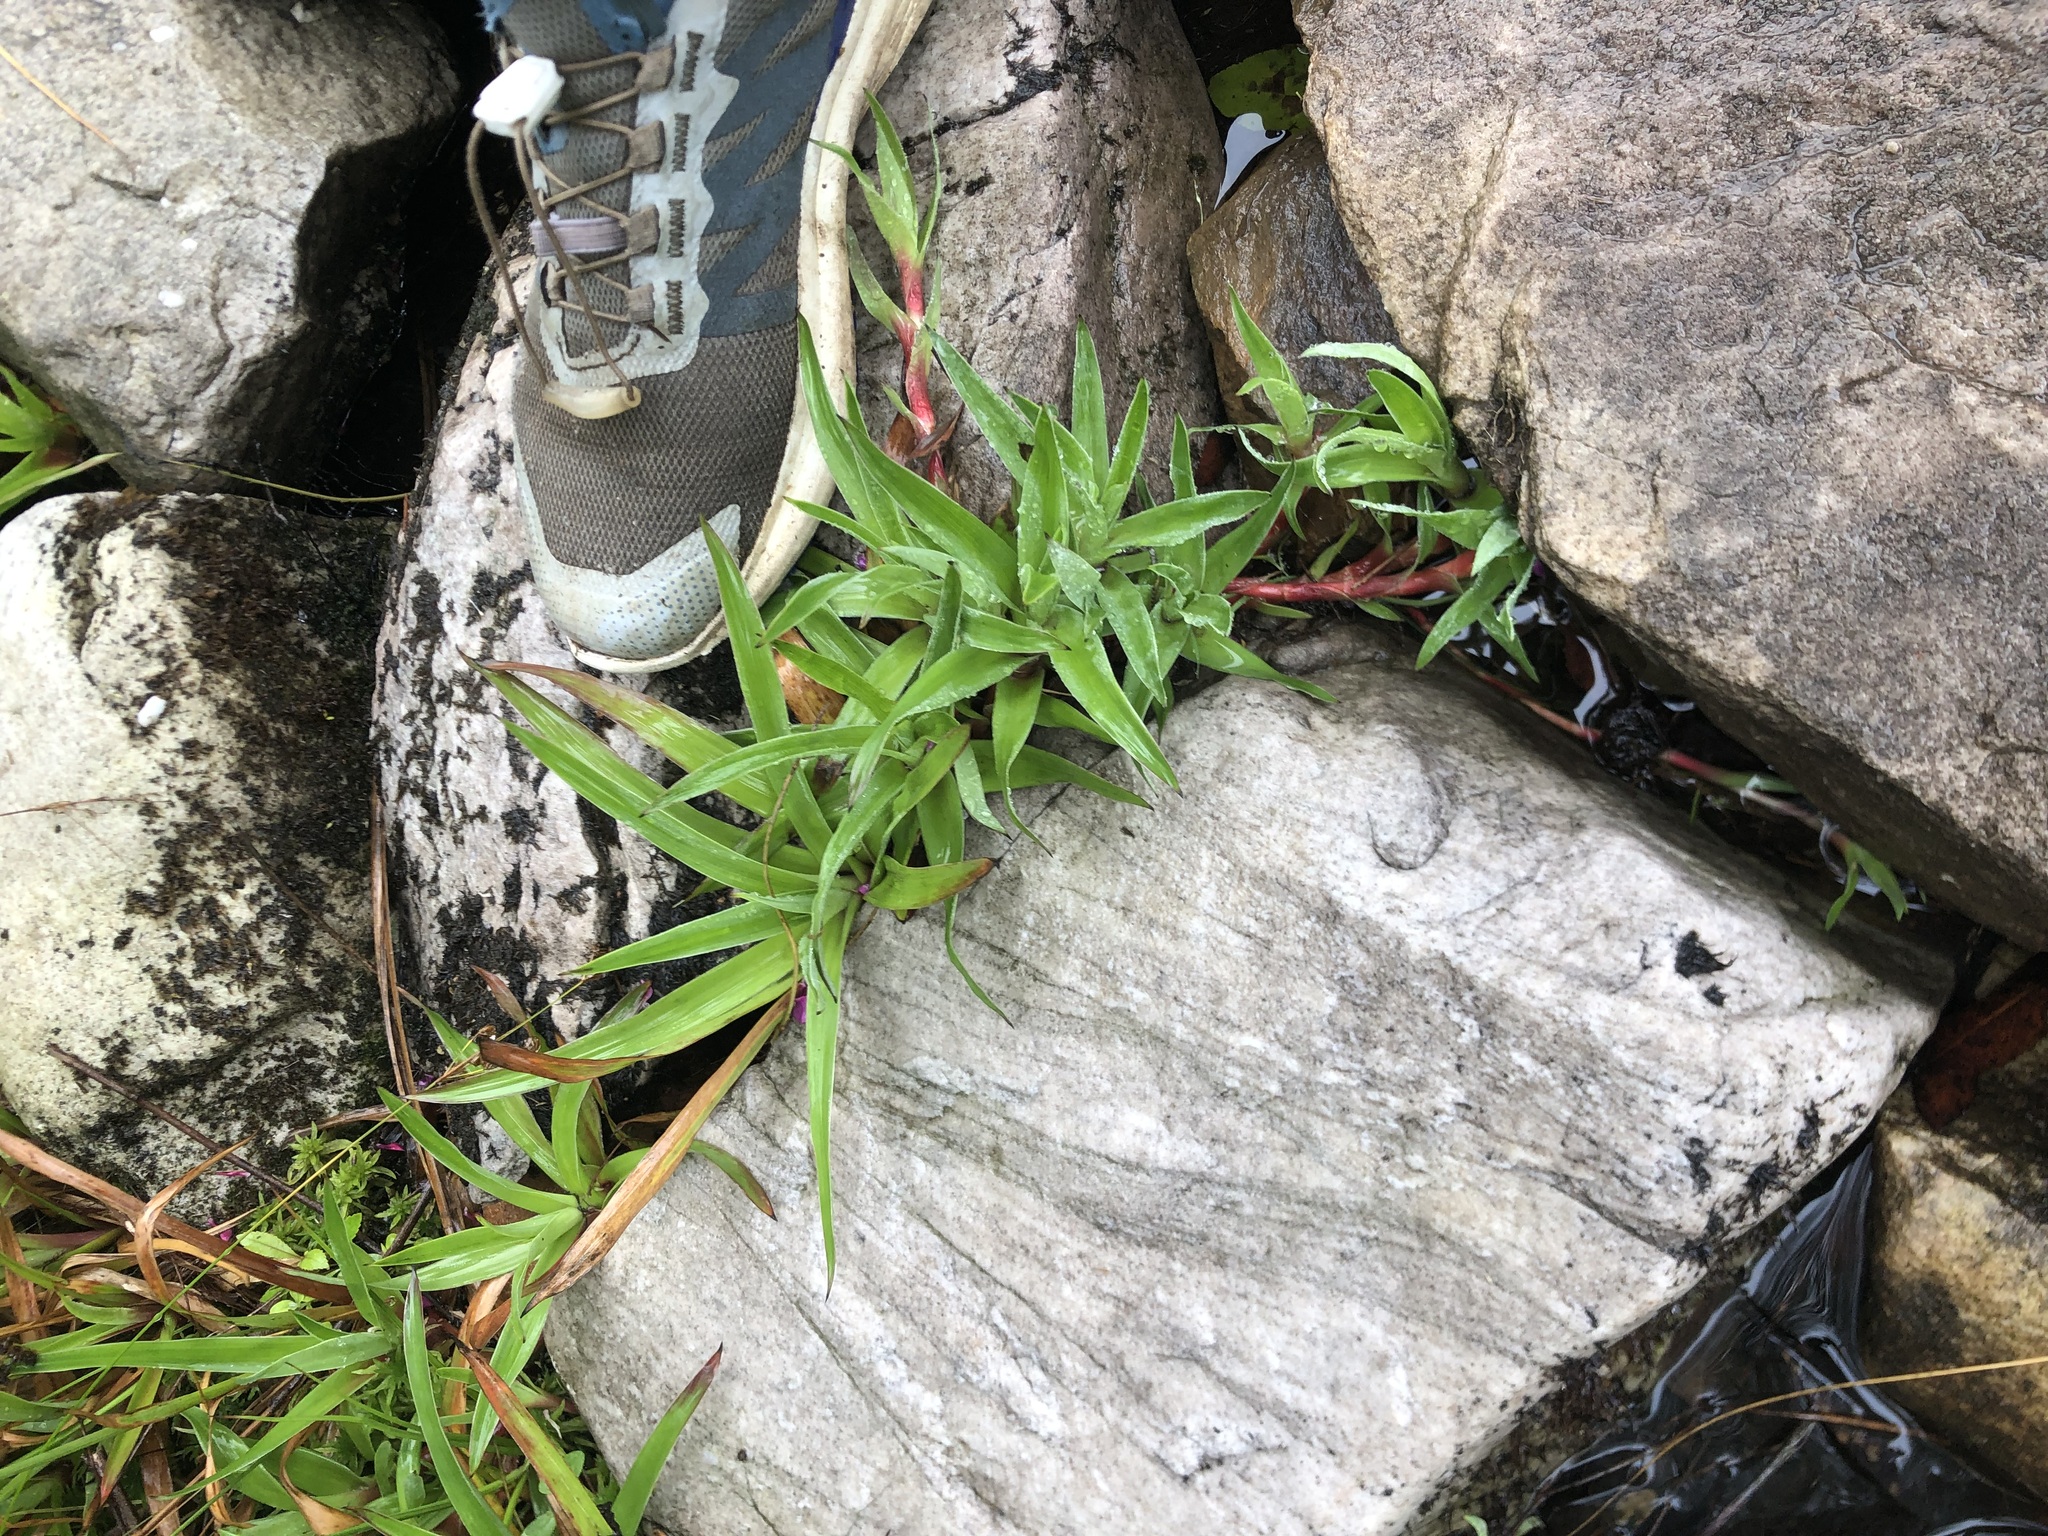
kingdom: Plantae
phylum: Tracheophyta
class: Liliopsida
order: Poales
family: Juncaceae
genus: Juncus
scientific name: Juncus lomatophyllus
